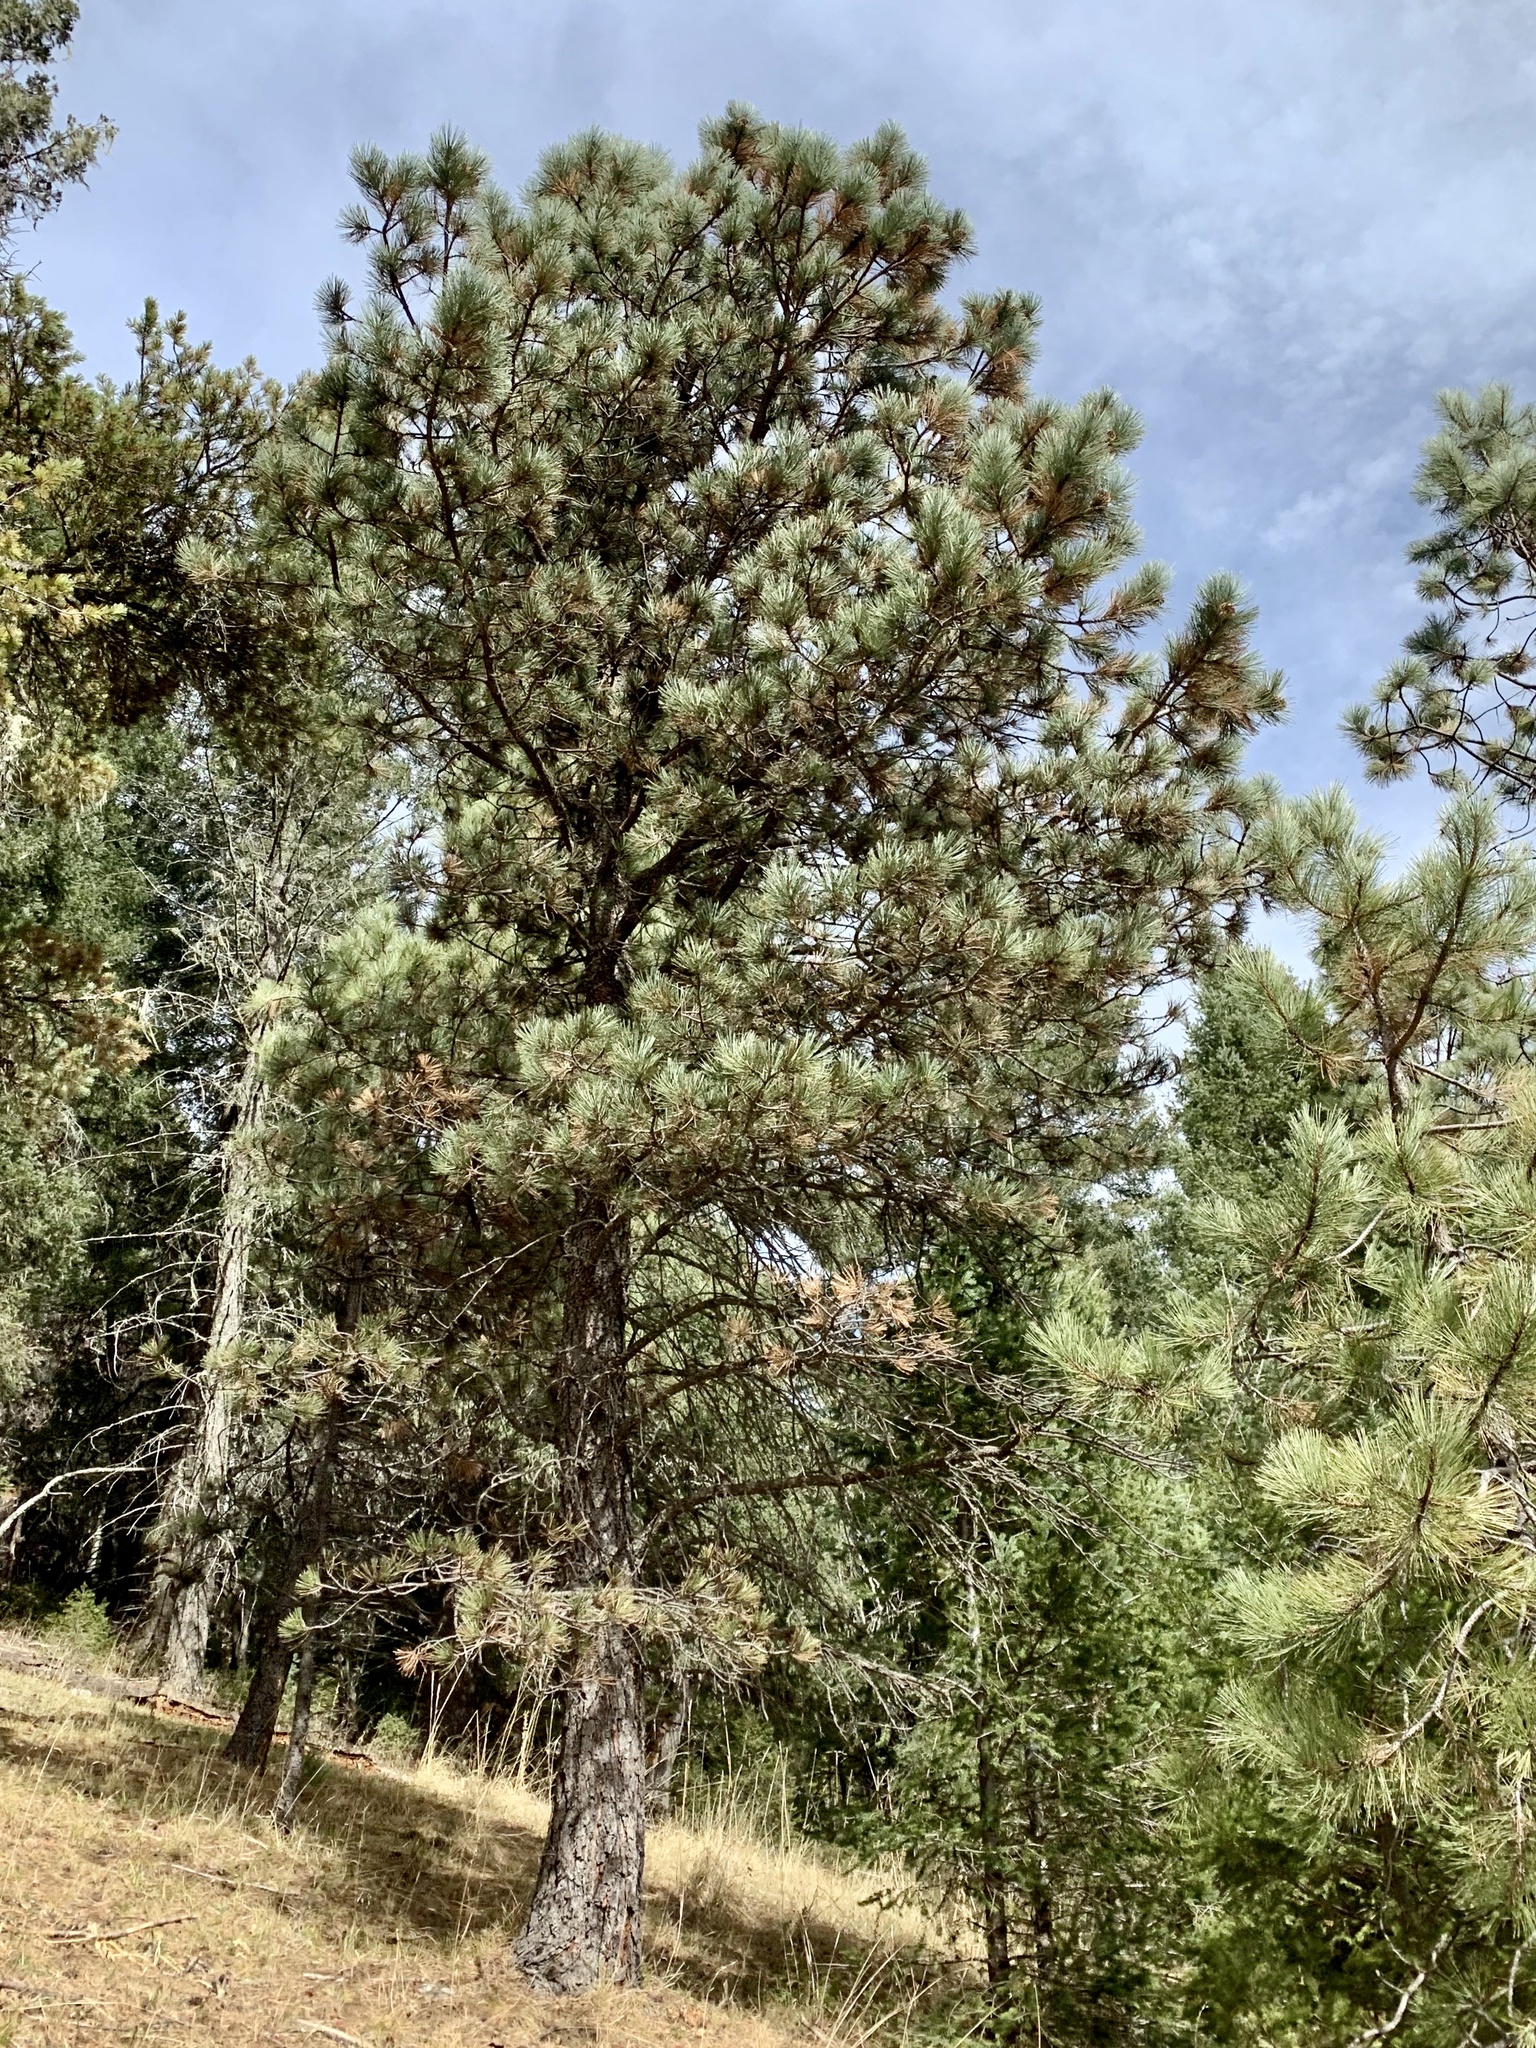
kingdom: Plantae
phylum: Tracheophyta
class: Pinopsida
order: Pinales
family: Pinaceae
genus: Pinus
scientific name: Pinus ponderosa
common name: Western yellow-pine
